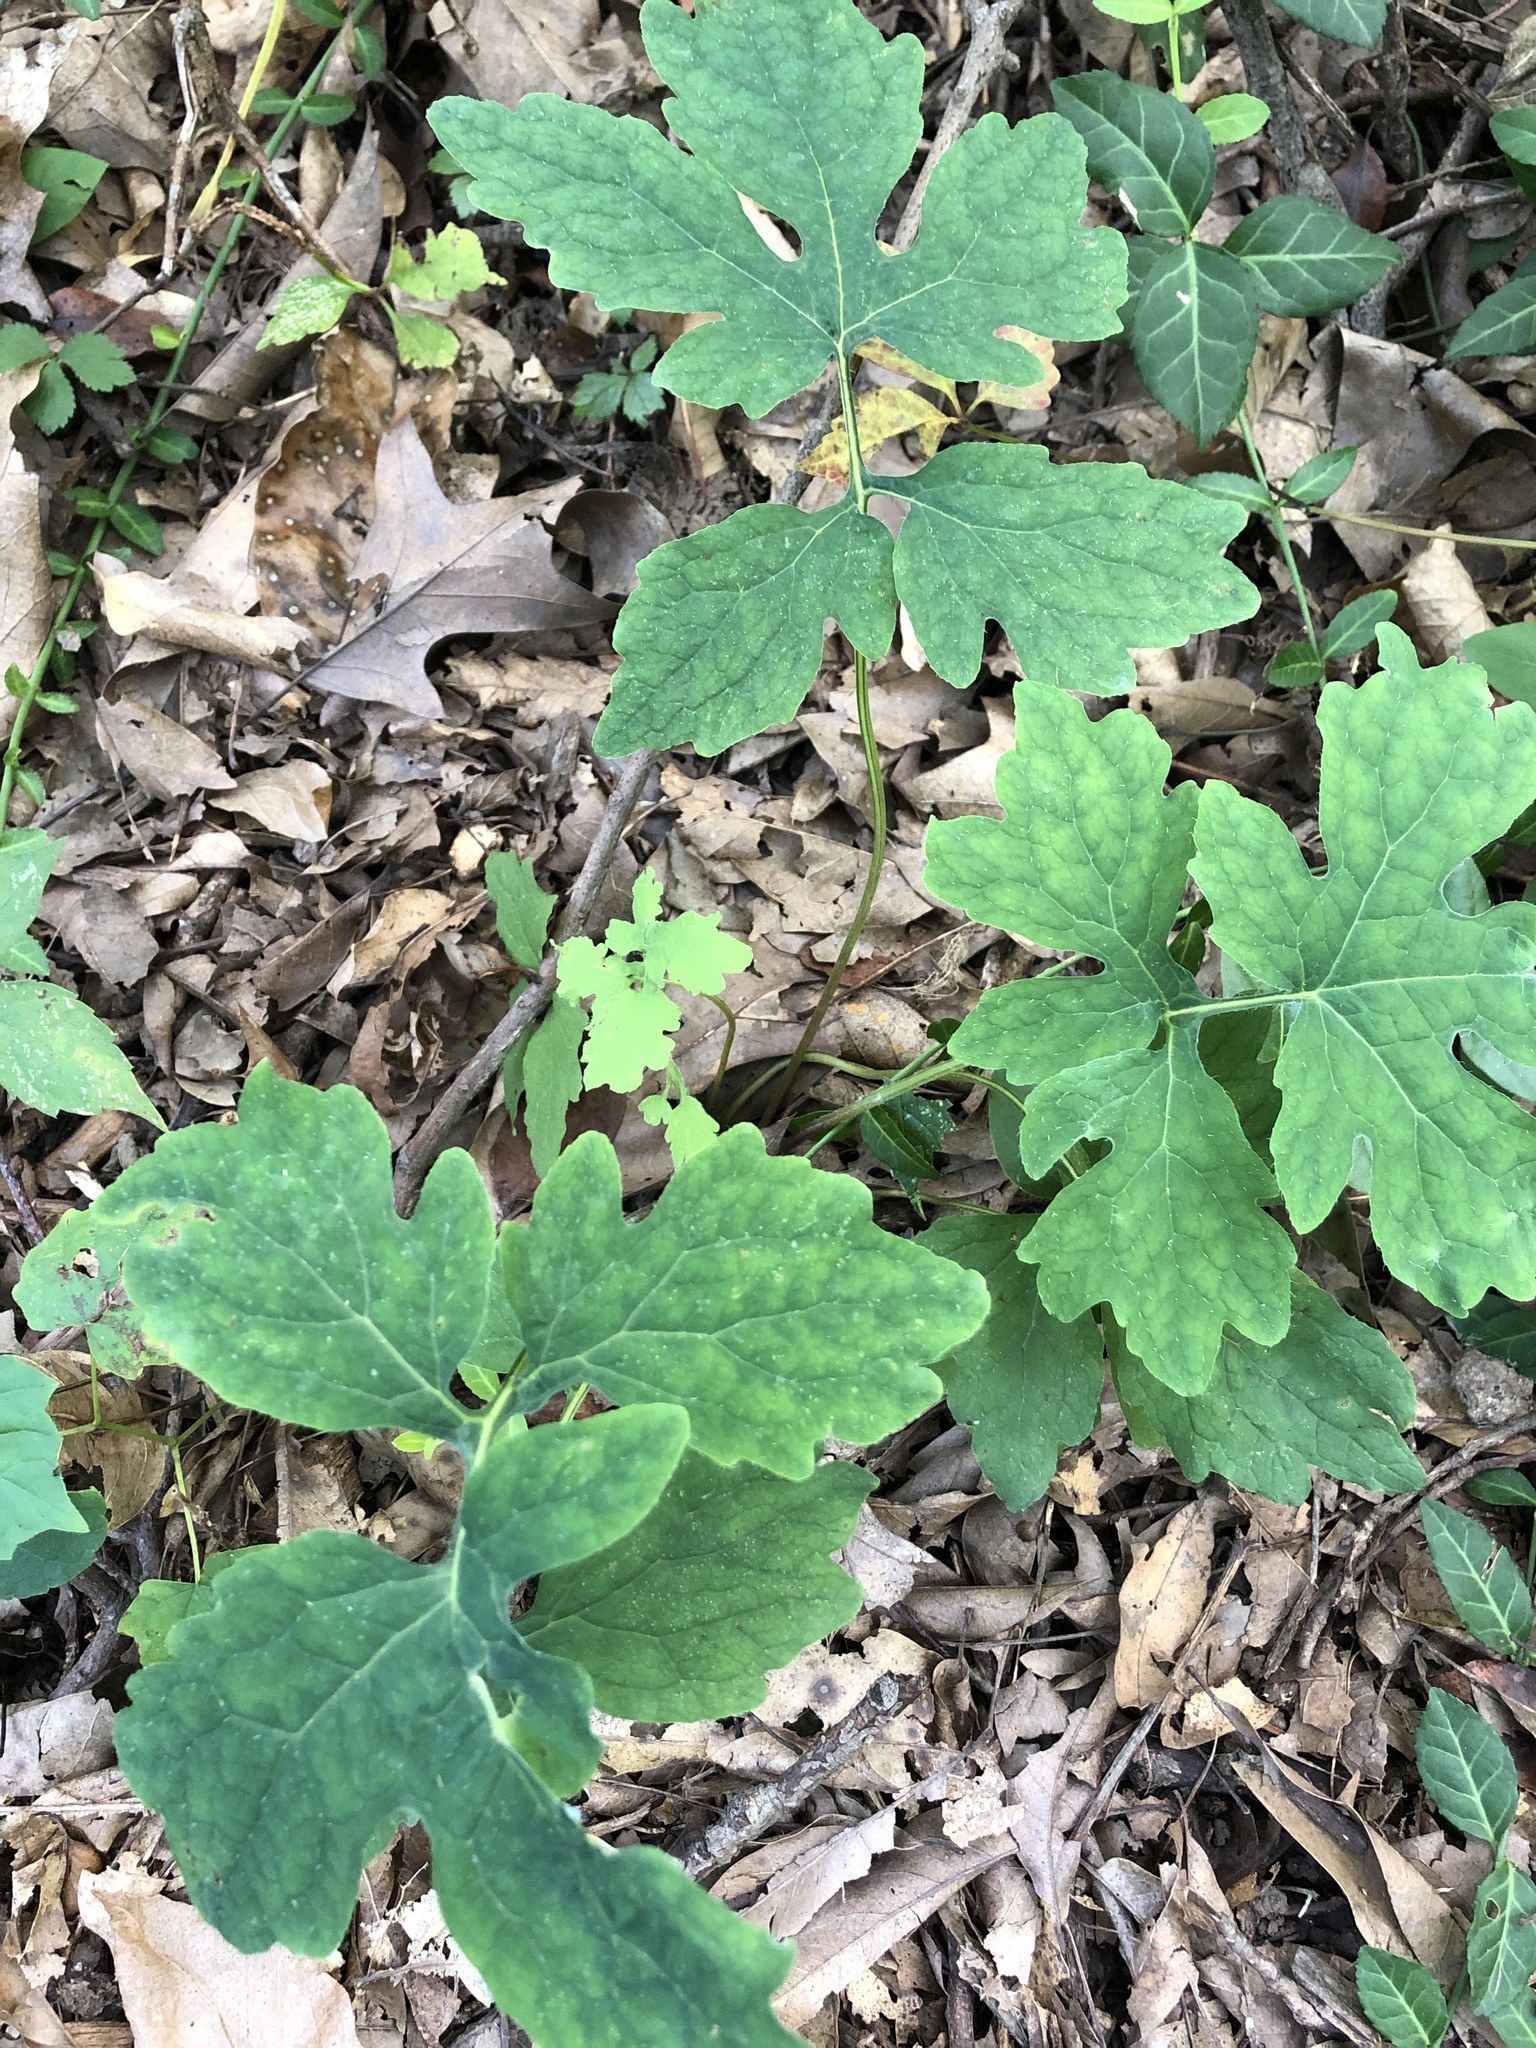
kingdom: Plantae
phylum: Tracheophyta
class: Magnoliopsida
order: Ranunculales
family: Papaveraceae
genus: Stylophorum
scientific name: Stylophorum diphyllum
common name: Celandine poppy
